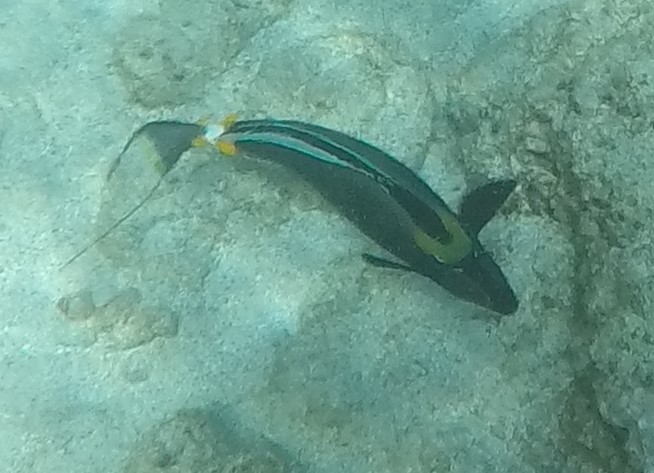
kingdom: Animalia
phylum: Chordata
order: Perciformes
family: Acanthuridae
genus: Naso
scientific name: Naso lituratus
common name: Orangespine unicornfish
